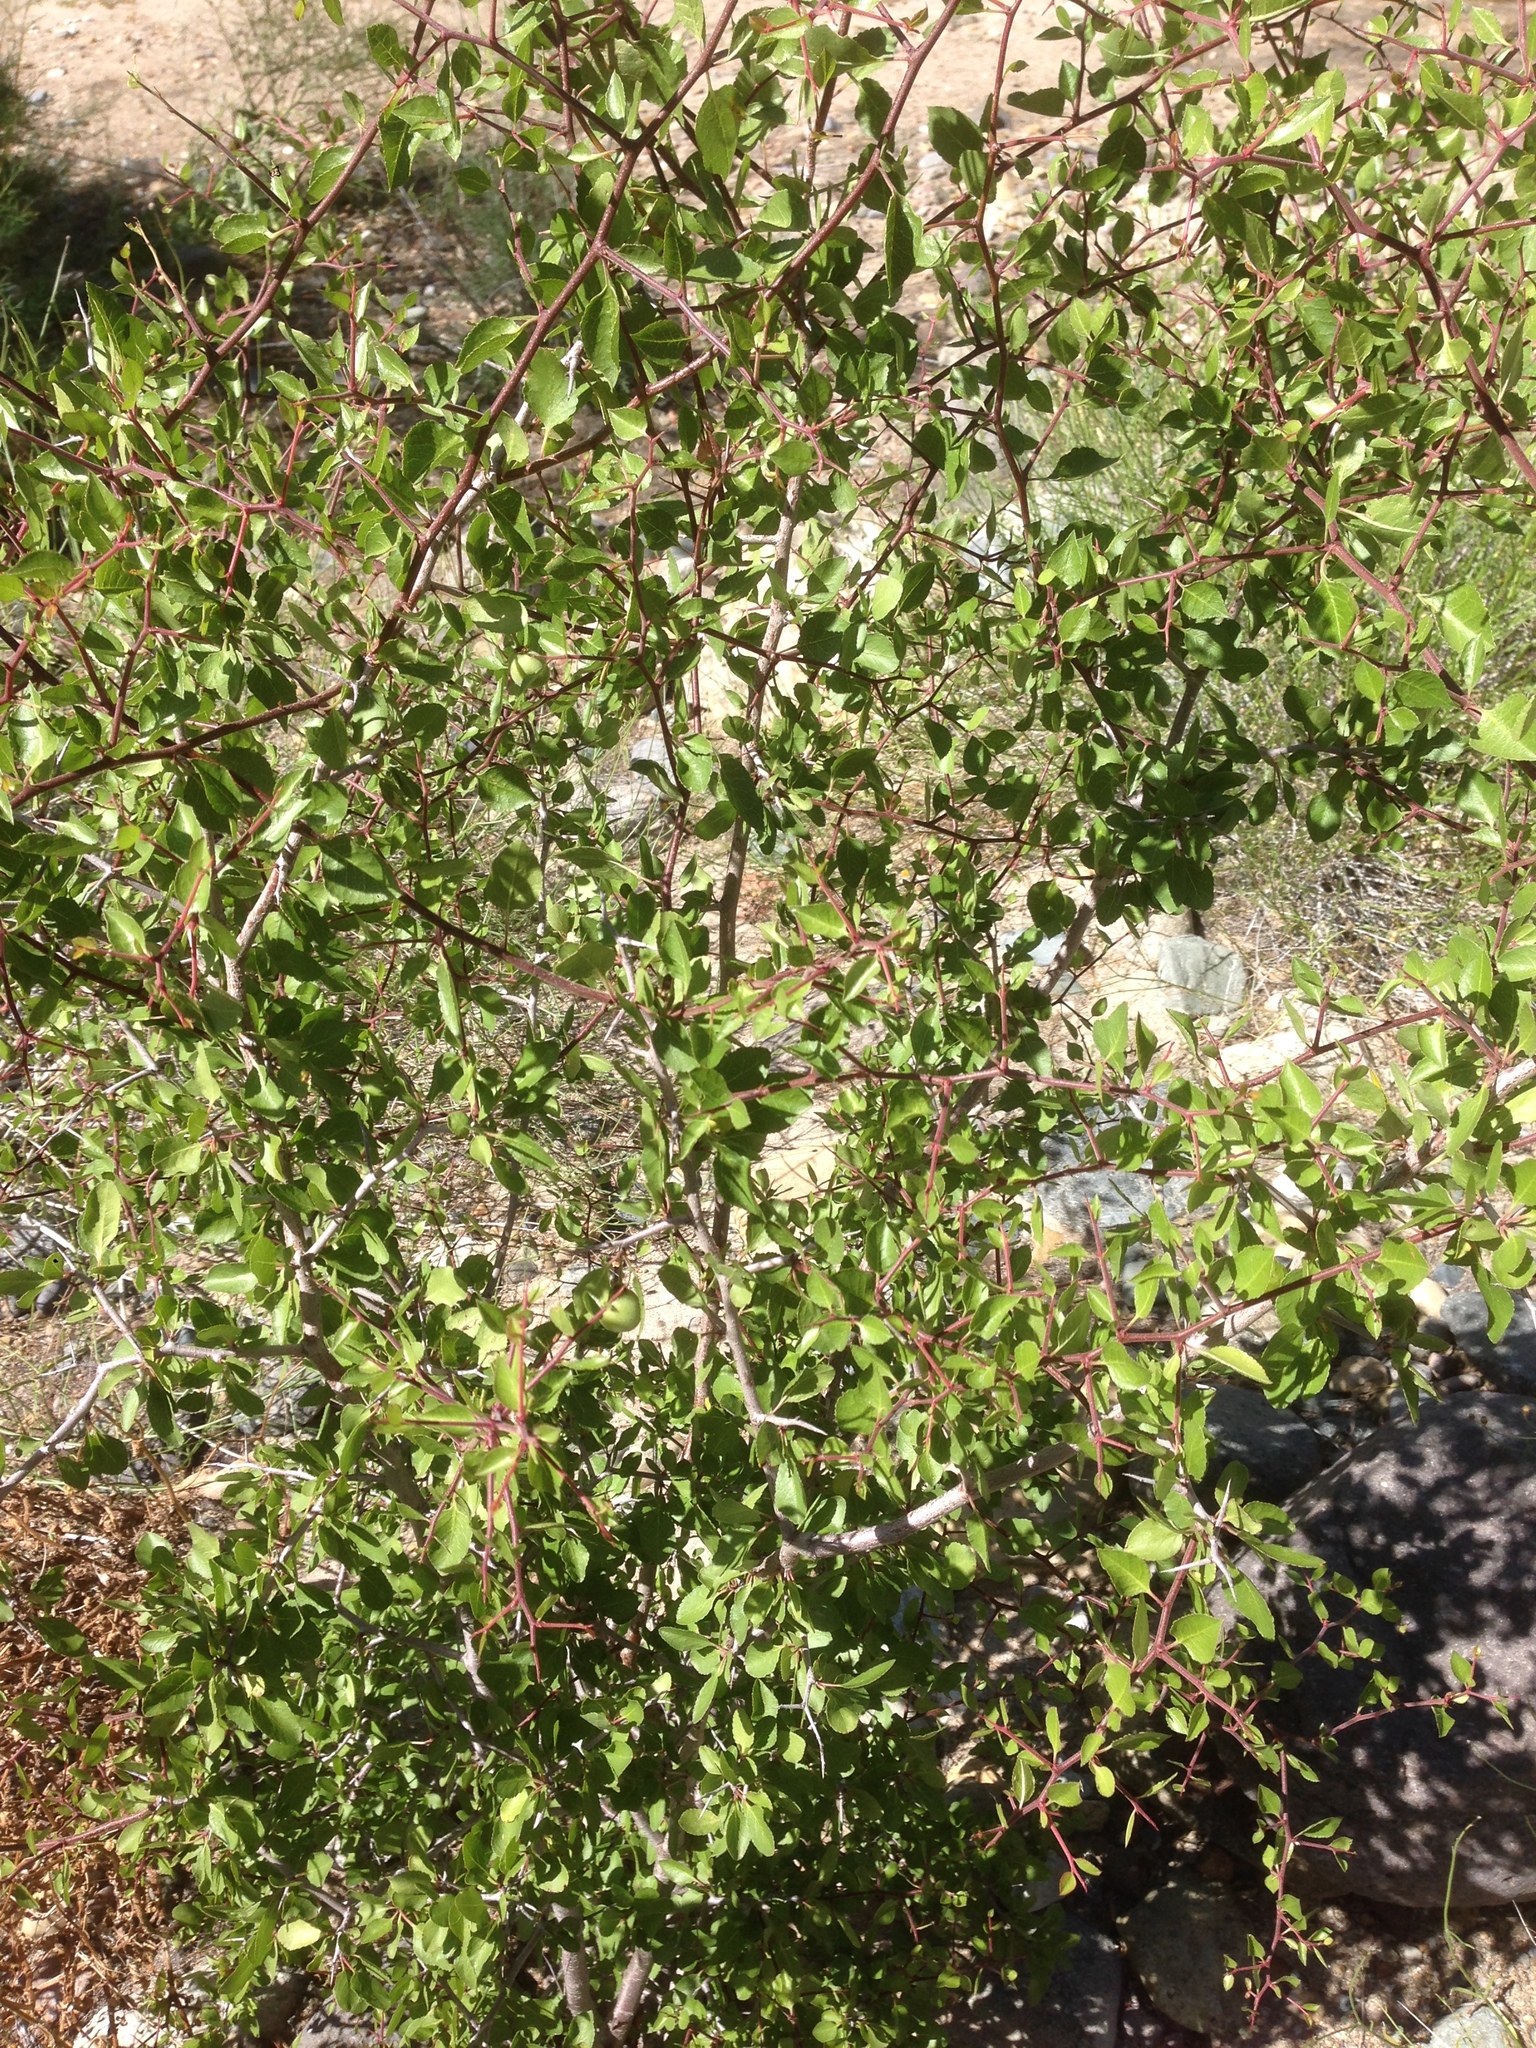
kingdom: Plantae
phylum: Tracheophyta
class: Magnoliopsida
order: Rosales
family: Rosaceae
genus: Prunus
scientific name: Prunus fremontii
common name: Desert apricot
